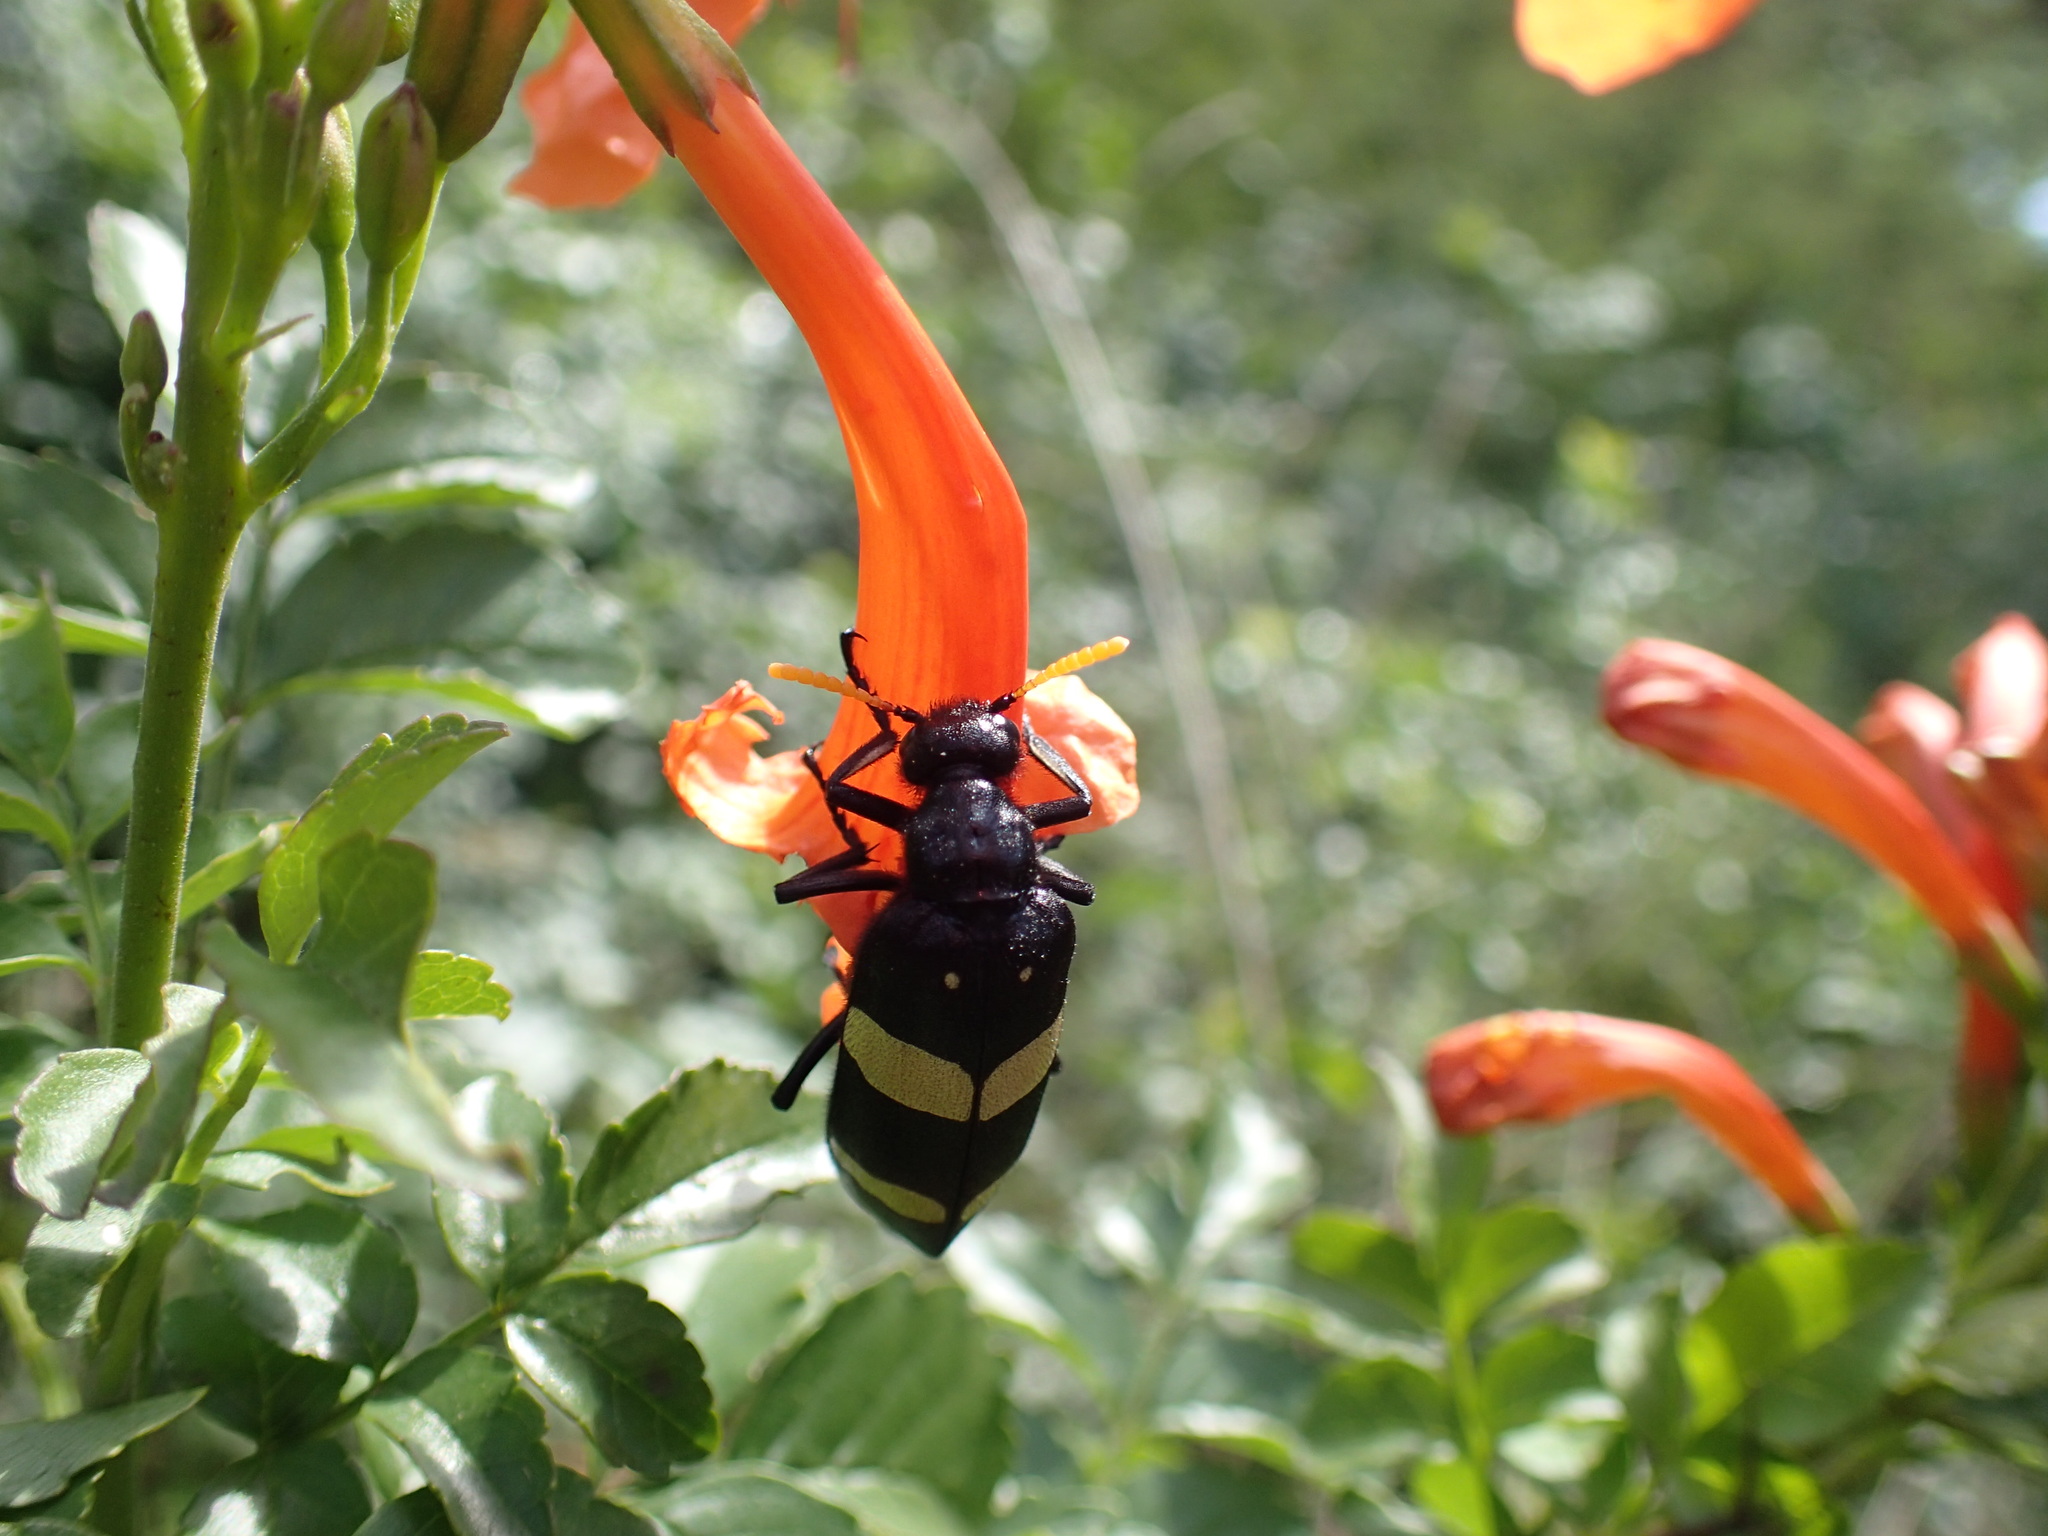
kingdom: Animalia
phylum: Arthropoda
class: Insecta
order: Coleoptera
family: Meloidae
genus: Hycleus
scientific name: Hycleus
